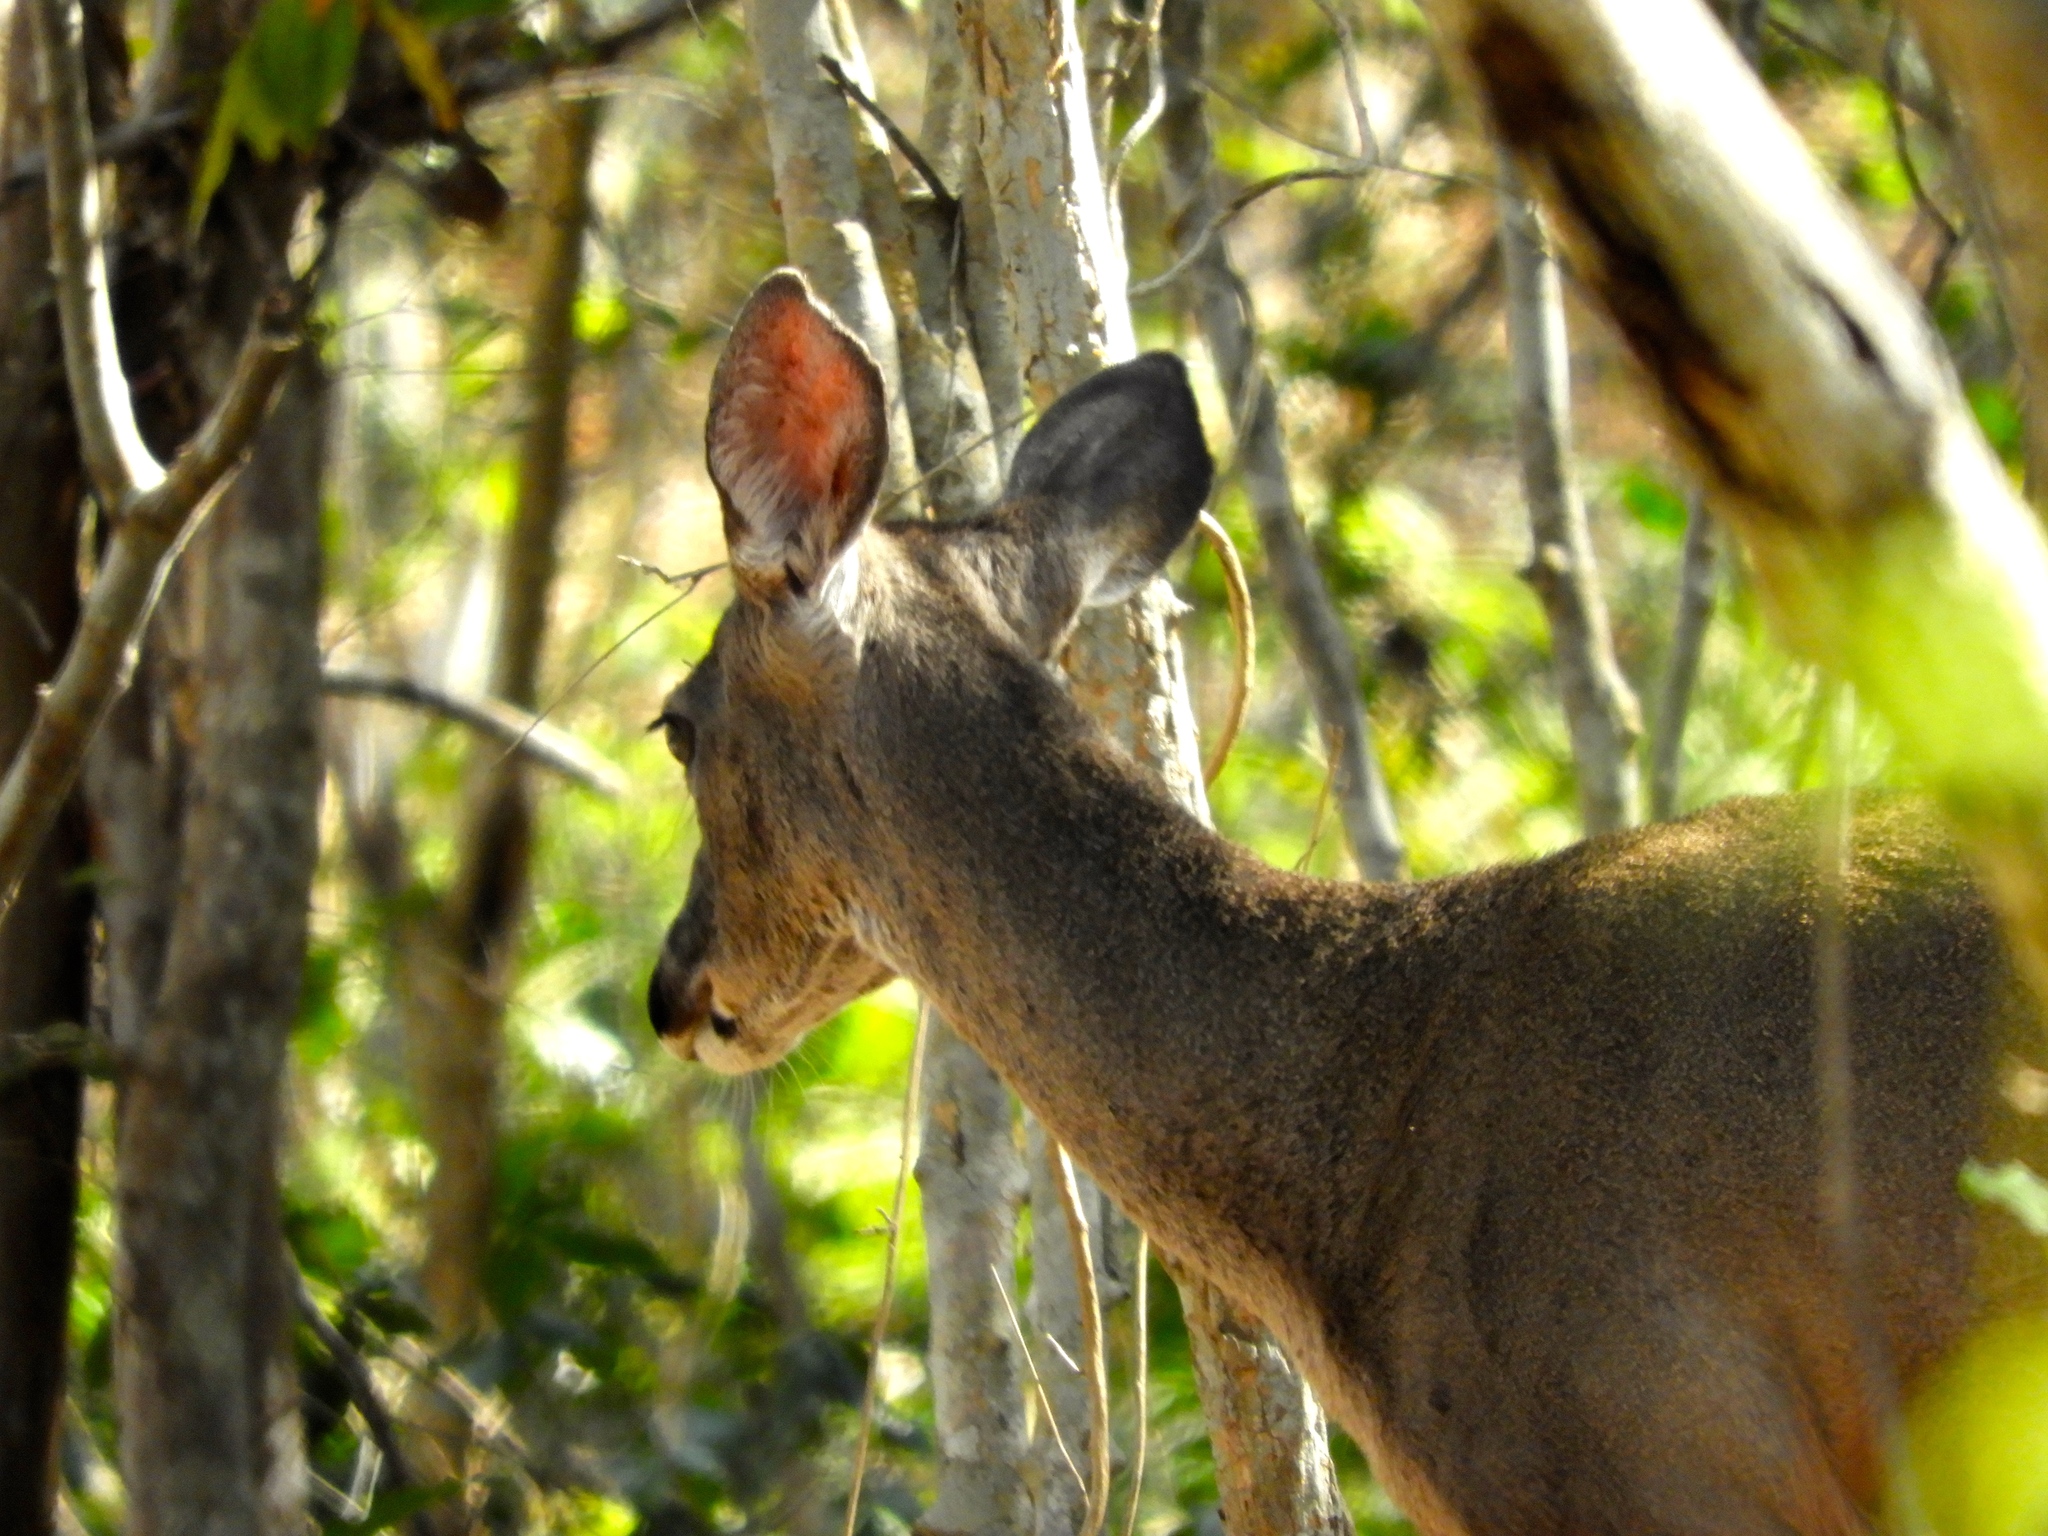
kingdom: Animalia
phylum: Chordata
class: Mammalia
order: Artiodactyla
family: Cervidae
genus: Odocoileus
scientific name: Odocoileus virginianus
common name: White-tailed deer
